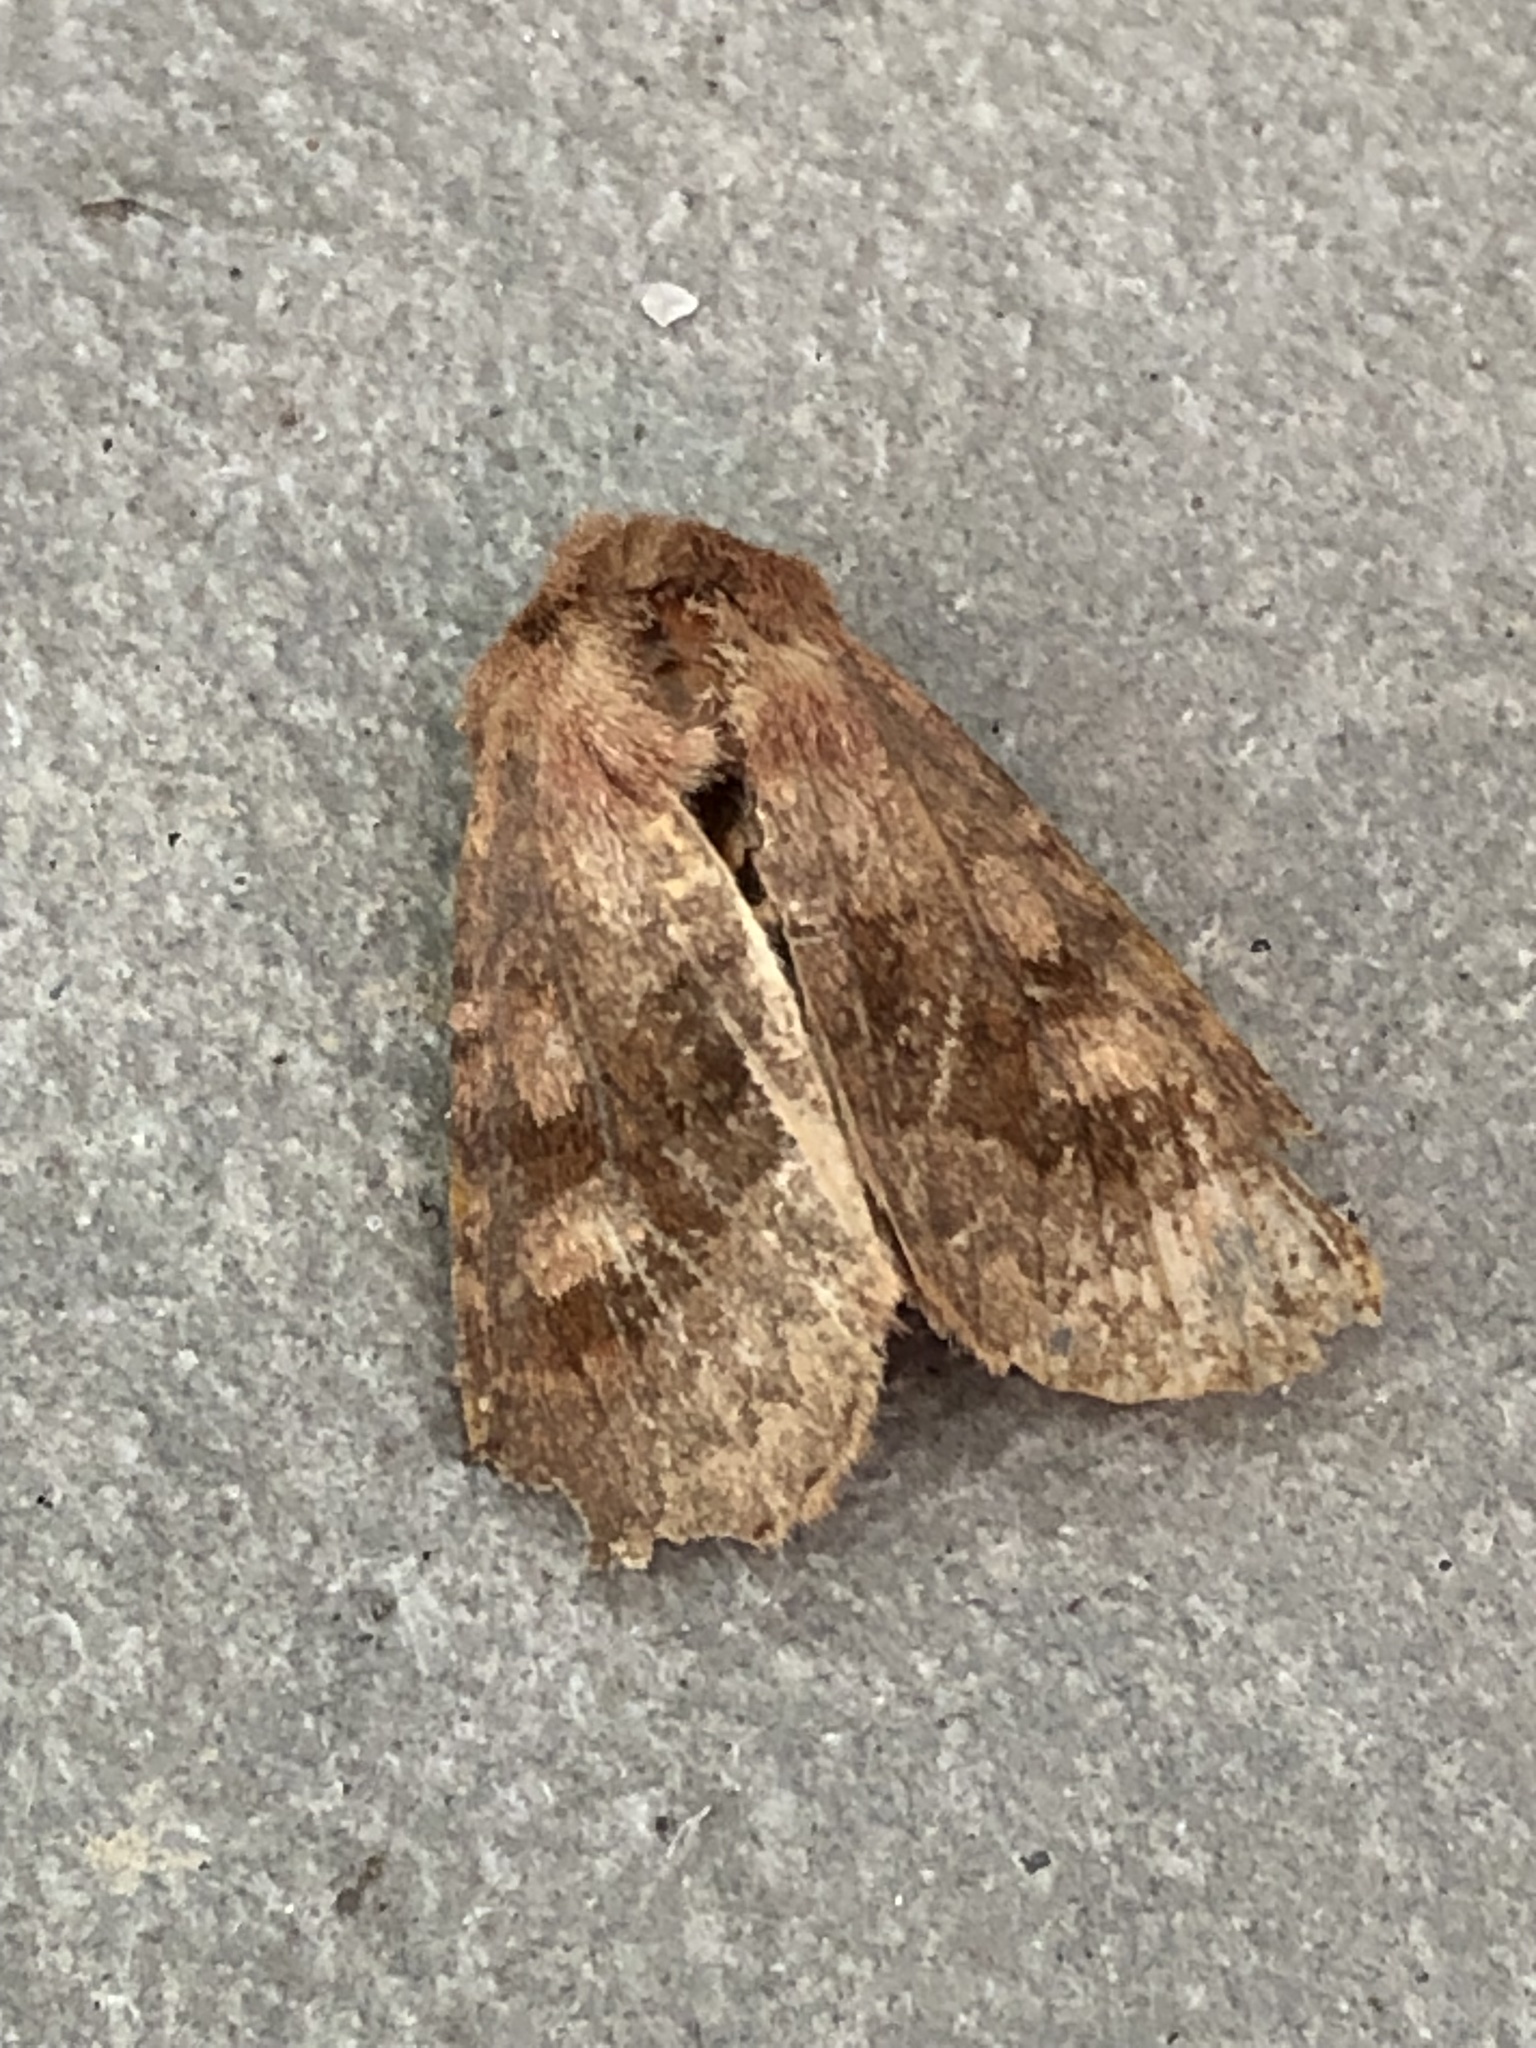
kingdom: Animalia
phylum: Arthropoda
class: Insecta
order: Lepidoptera
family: Noctuidae
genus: Nephelodes
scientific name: Nephelodes minians
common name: Bronzed cutworm
